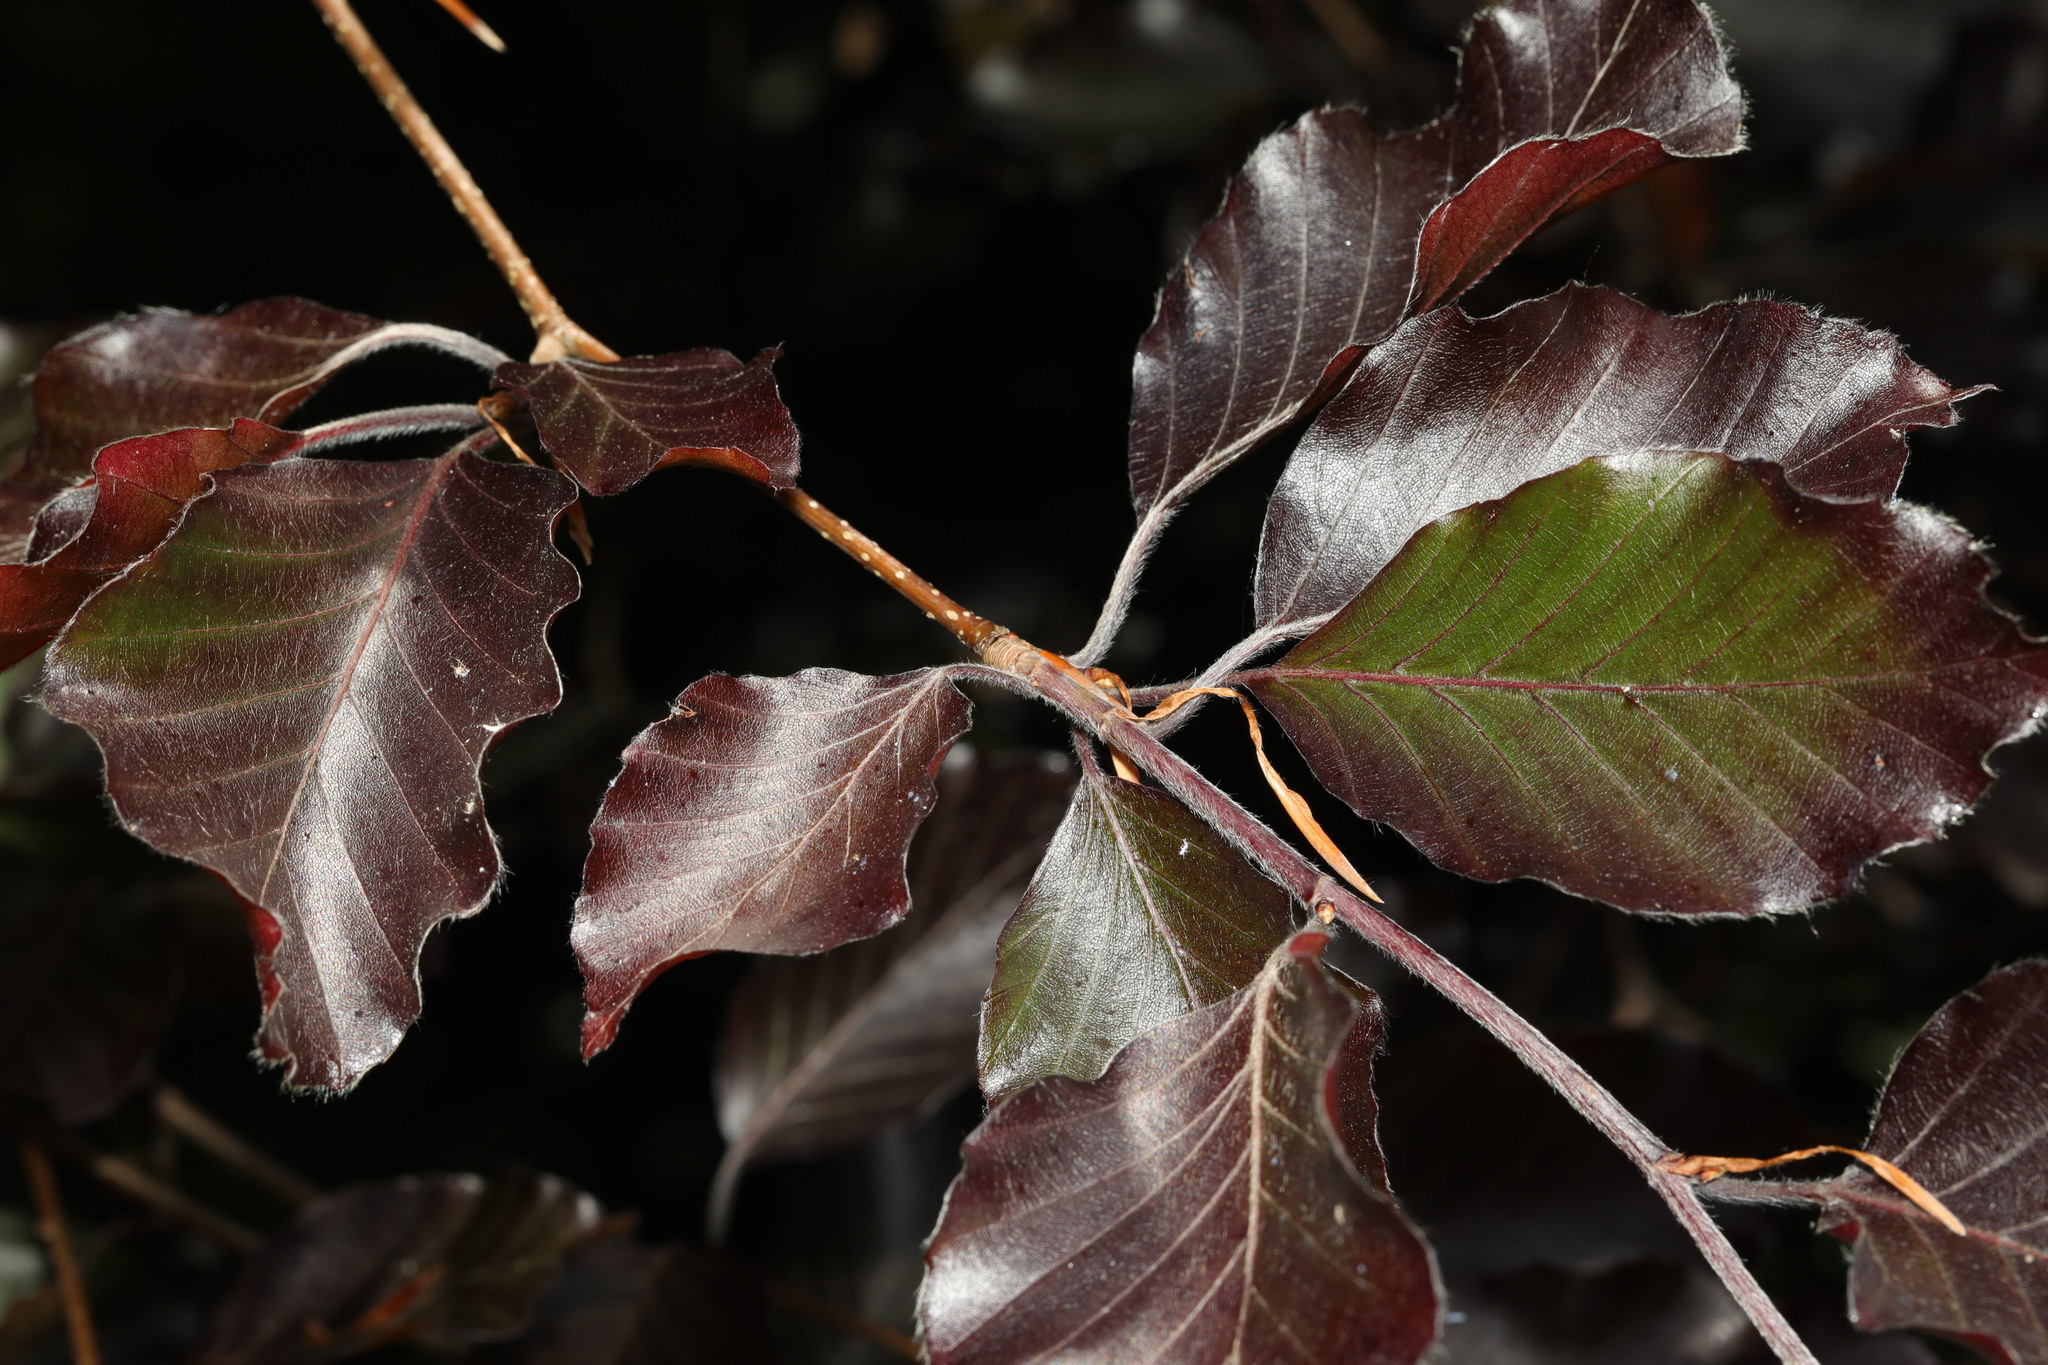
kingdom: Plantae
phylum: Tracheophyta
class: Magnoliopsida
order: Fagales
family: Fagaceae
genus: Fagus
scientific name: Fagus sylvatica
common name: Beech
